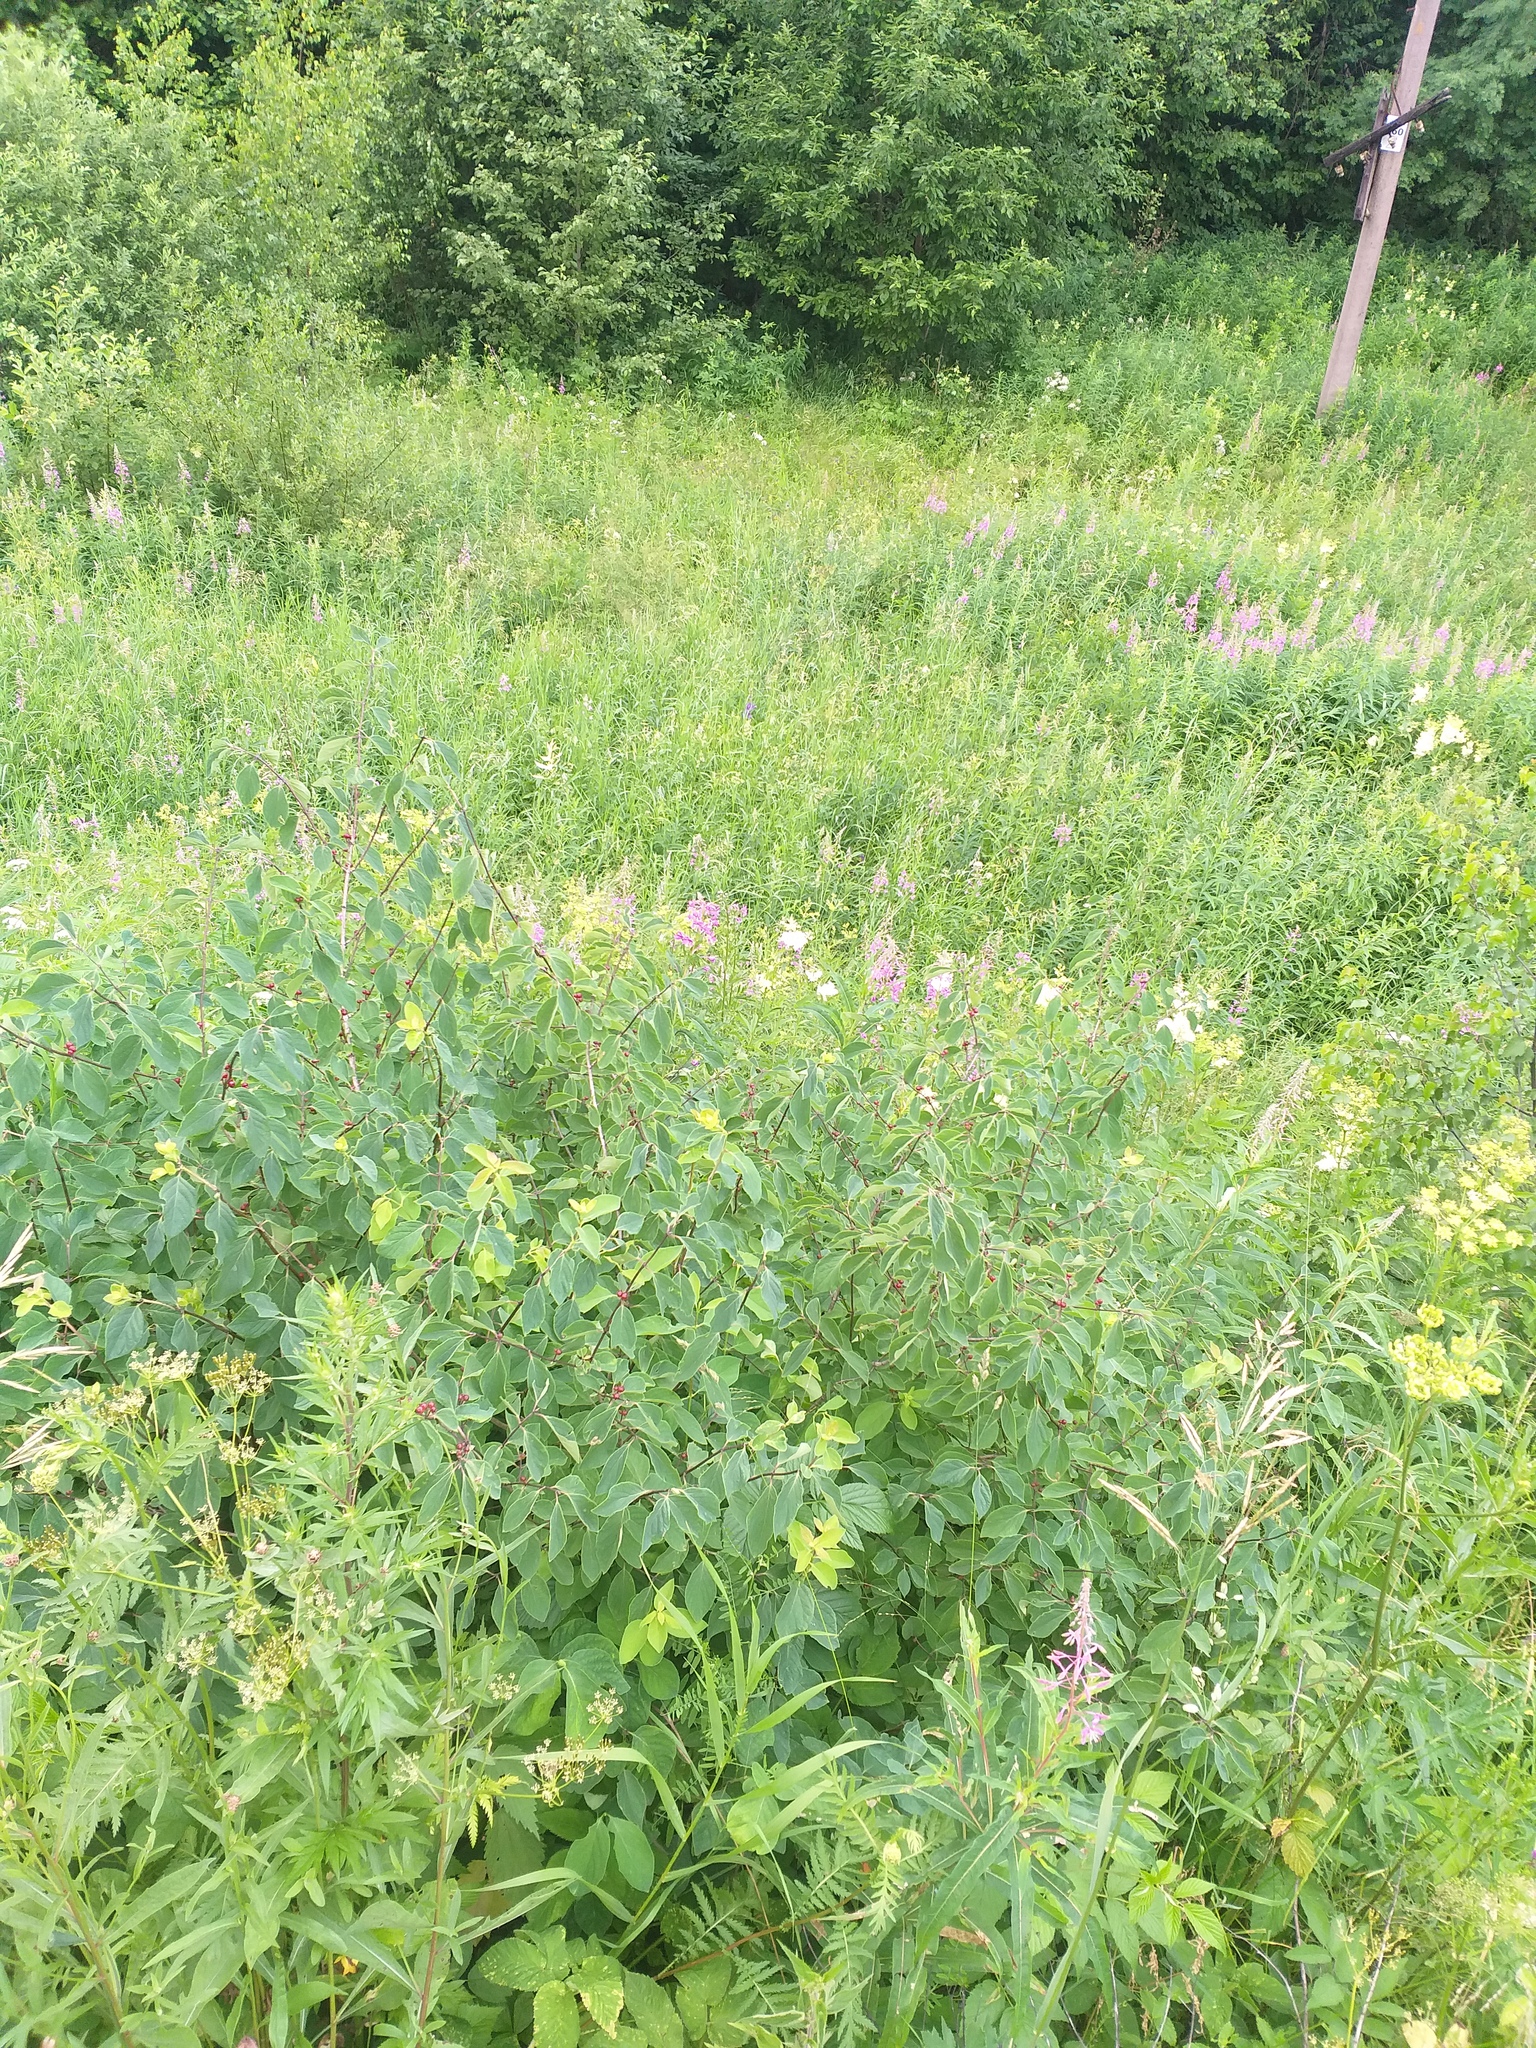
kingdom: Plantae
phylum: Tracheophyta
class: Magnoliopsida
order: Dipsacales
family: Caprifoliaceae
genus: Lonicera
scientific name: Lonicera xylosteum
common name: Fly honeysuckle
